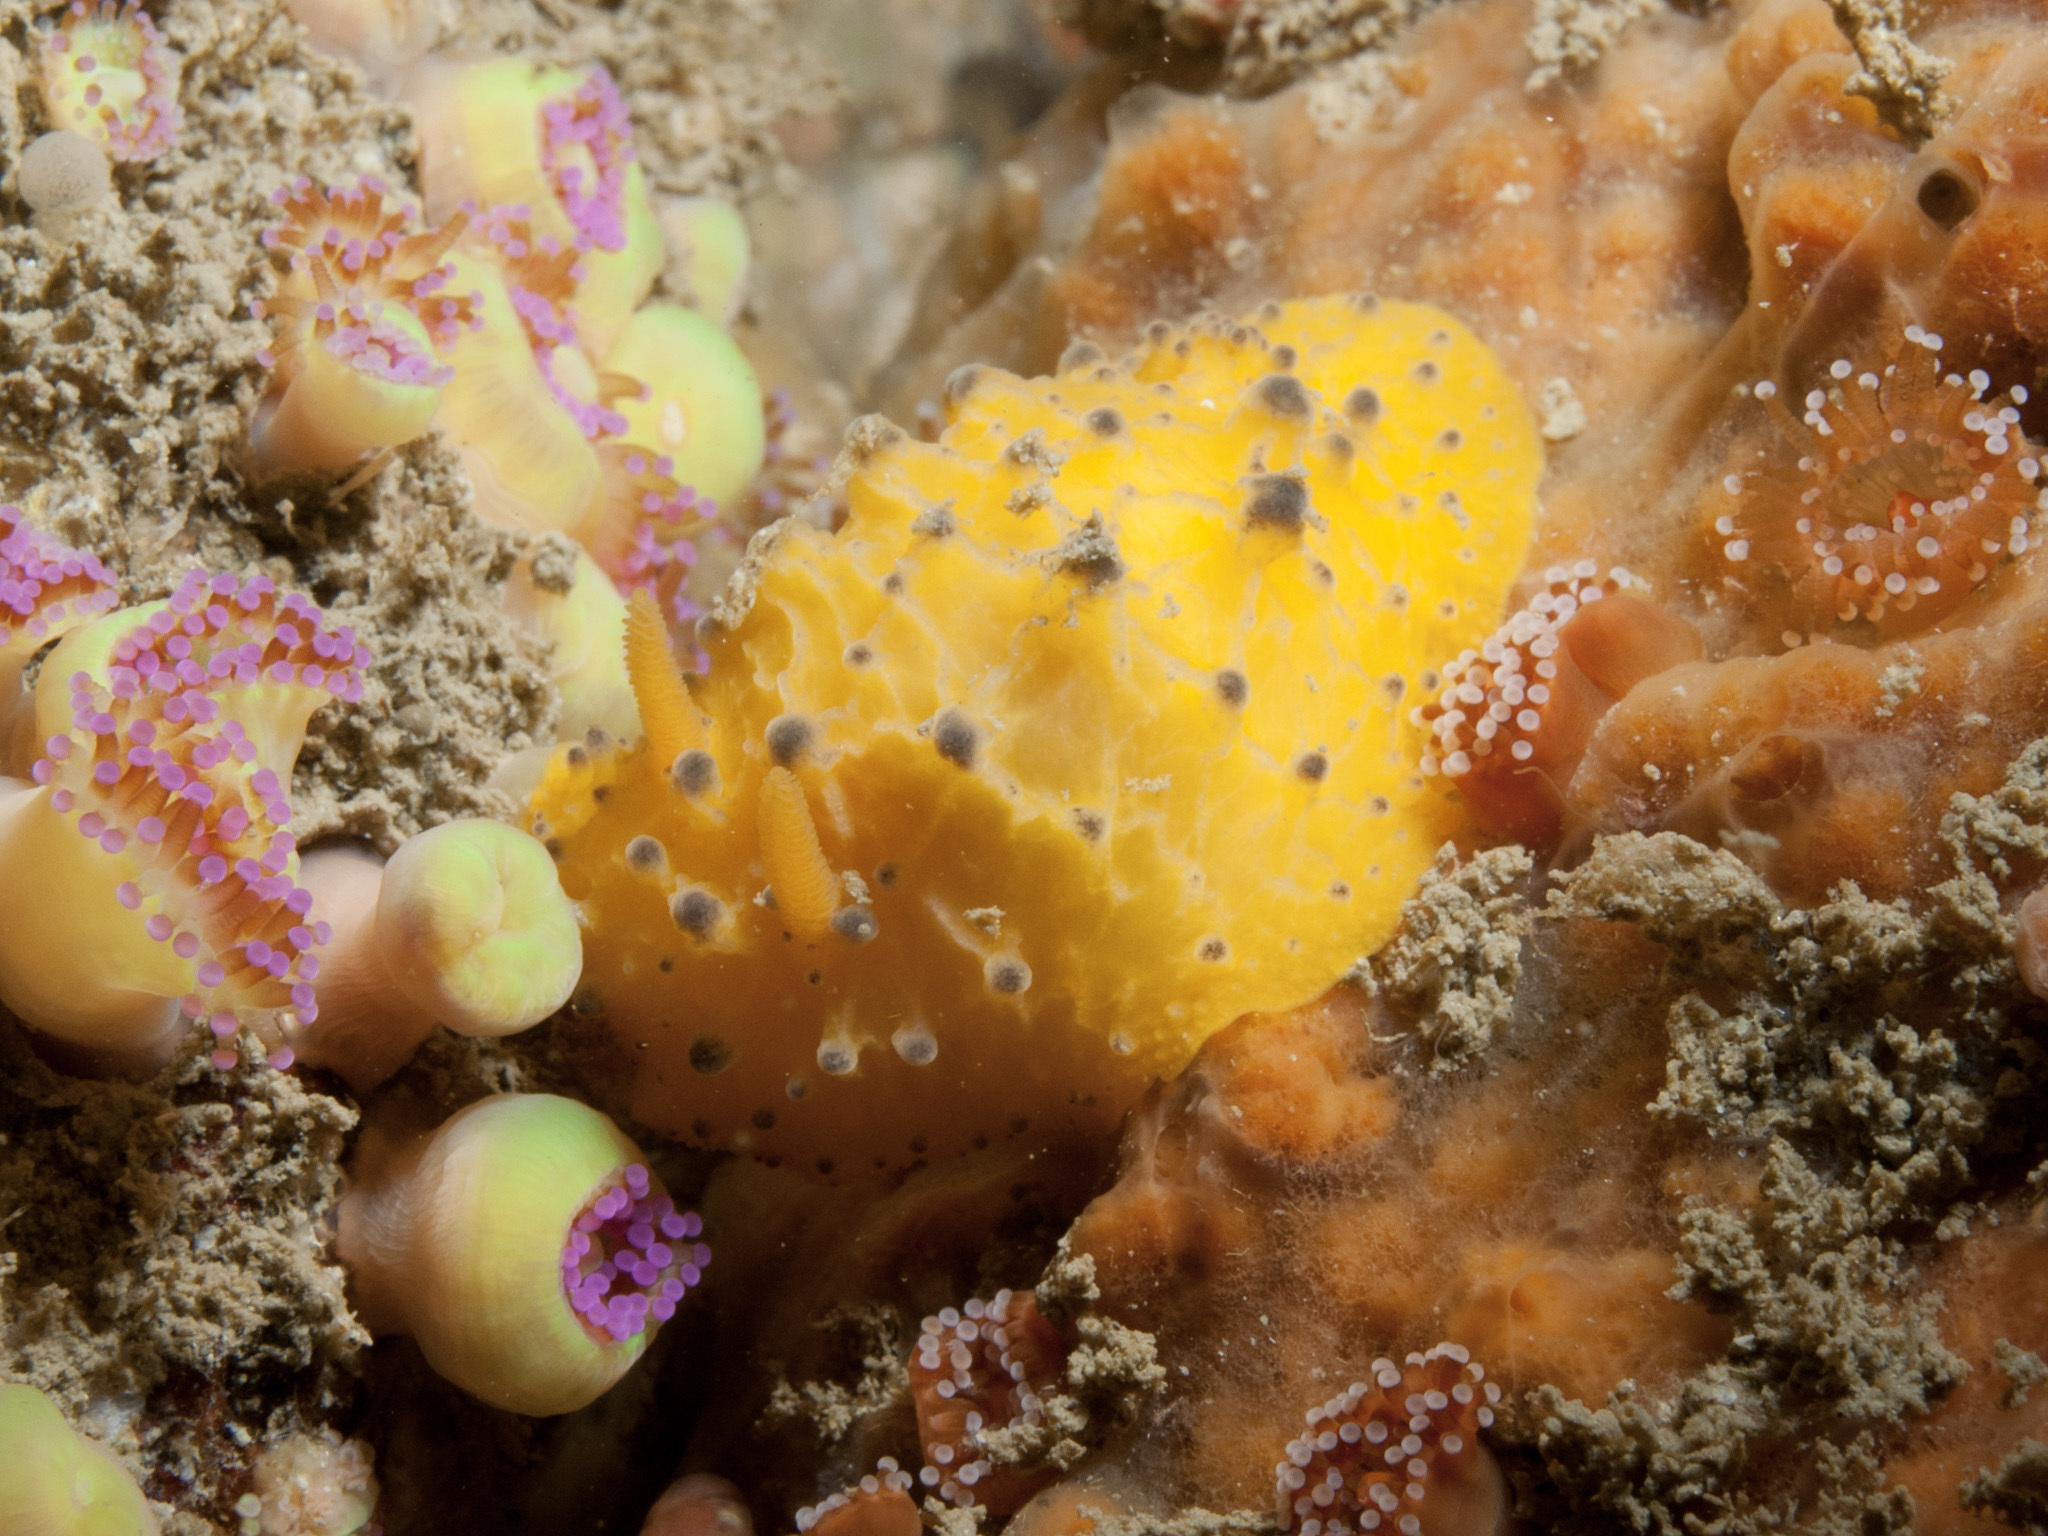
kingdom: Animalia
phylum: Mollusca
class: Gastropoda
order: Nudibranchia
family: Dorididae
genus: Doris
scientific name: Doris sticta
